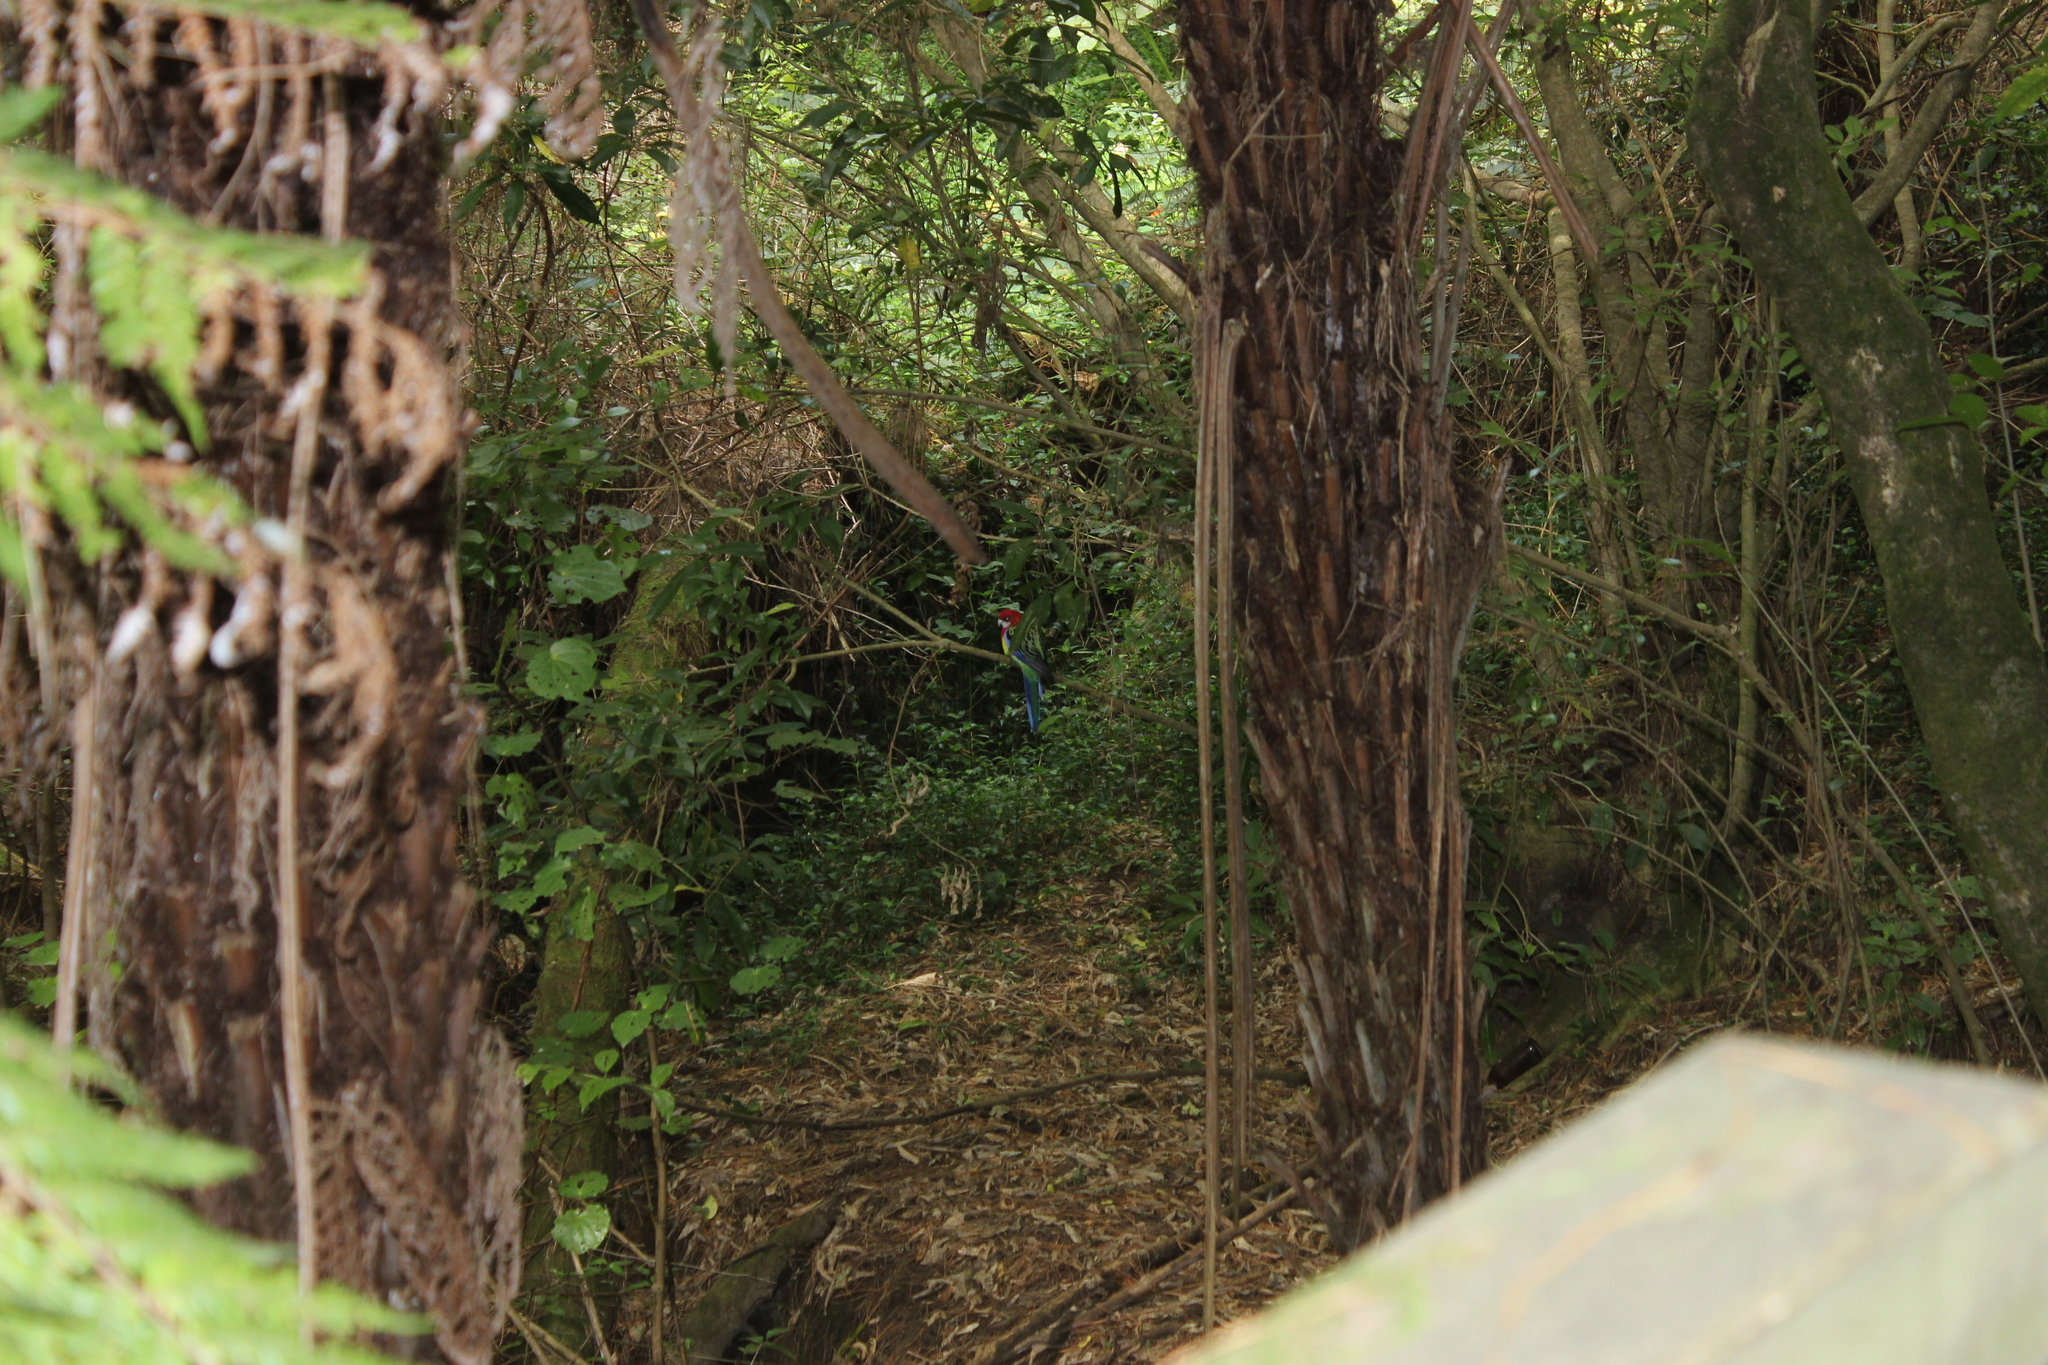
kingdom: Animalia
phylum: Chordata
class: Aves
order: Psittaciformes
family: Psittacidae
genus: Platycercus
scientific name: Platycercus eximius
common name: Eastern rosella
